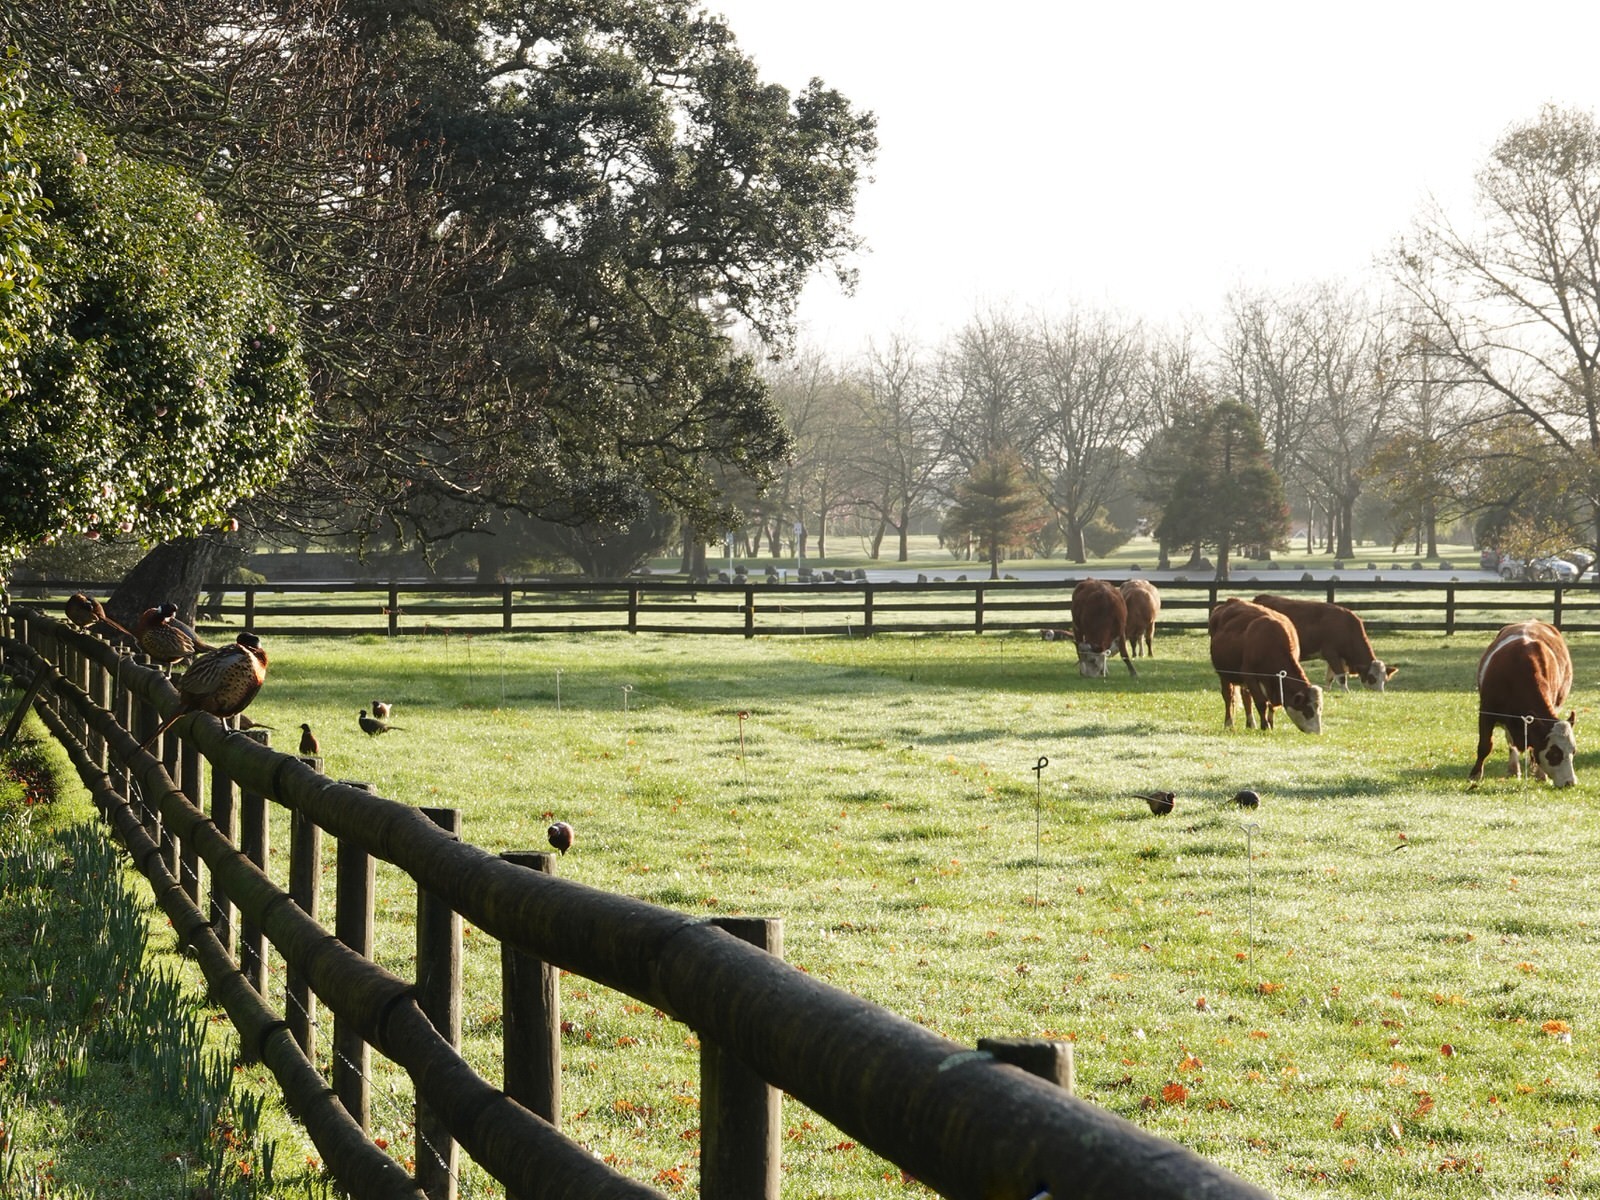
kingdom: Animalia
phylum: Chordata
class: Aves
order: Galliformes
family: Phasianidae
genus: Phasianus
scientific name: Phasianus colchicus
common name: Common pheasant
